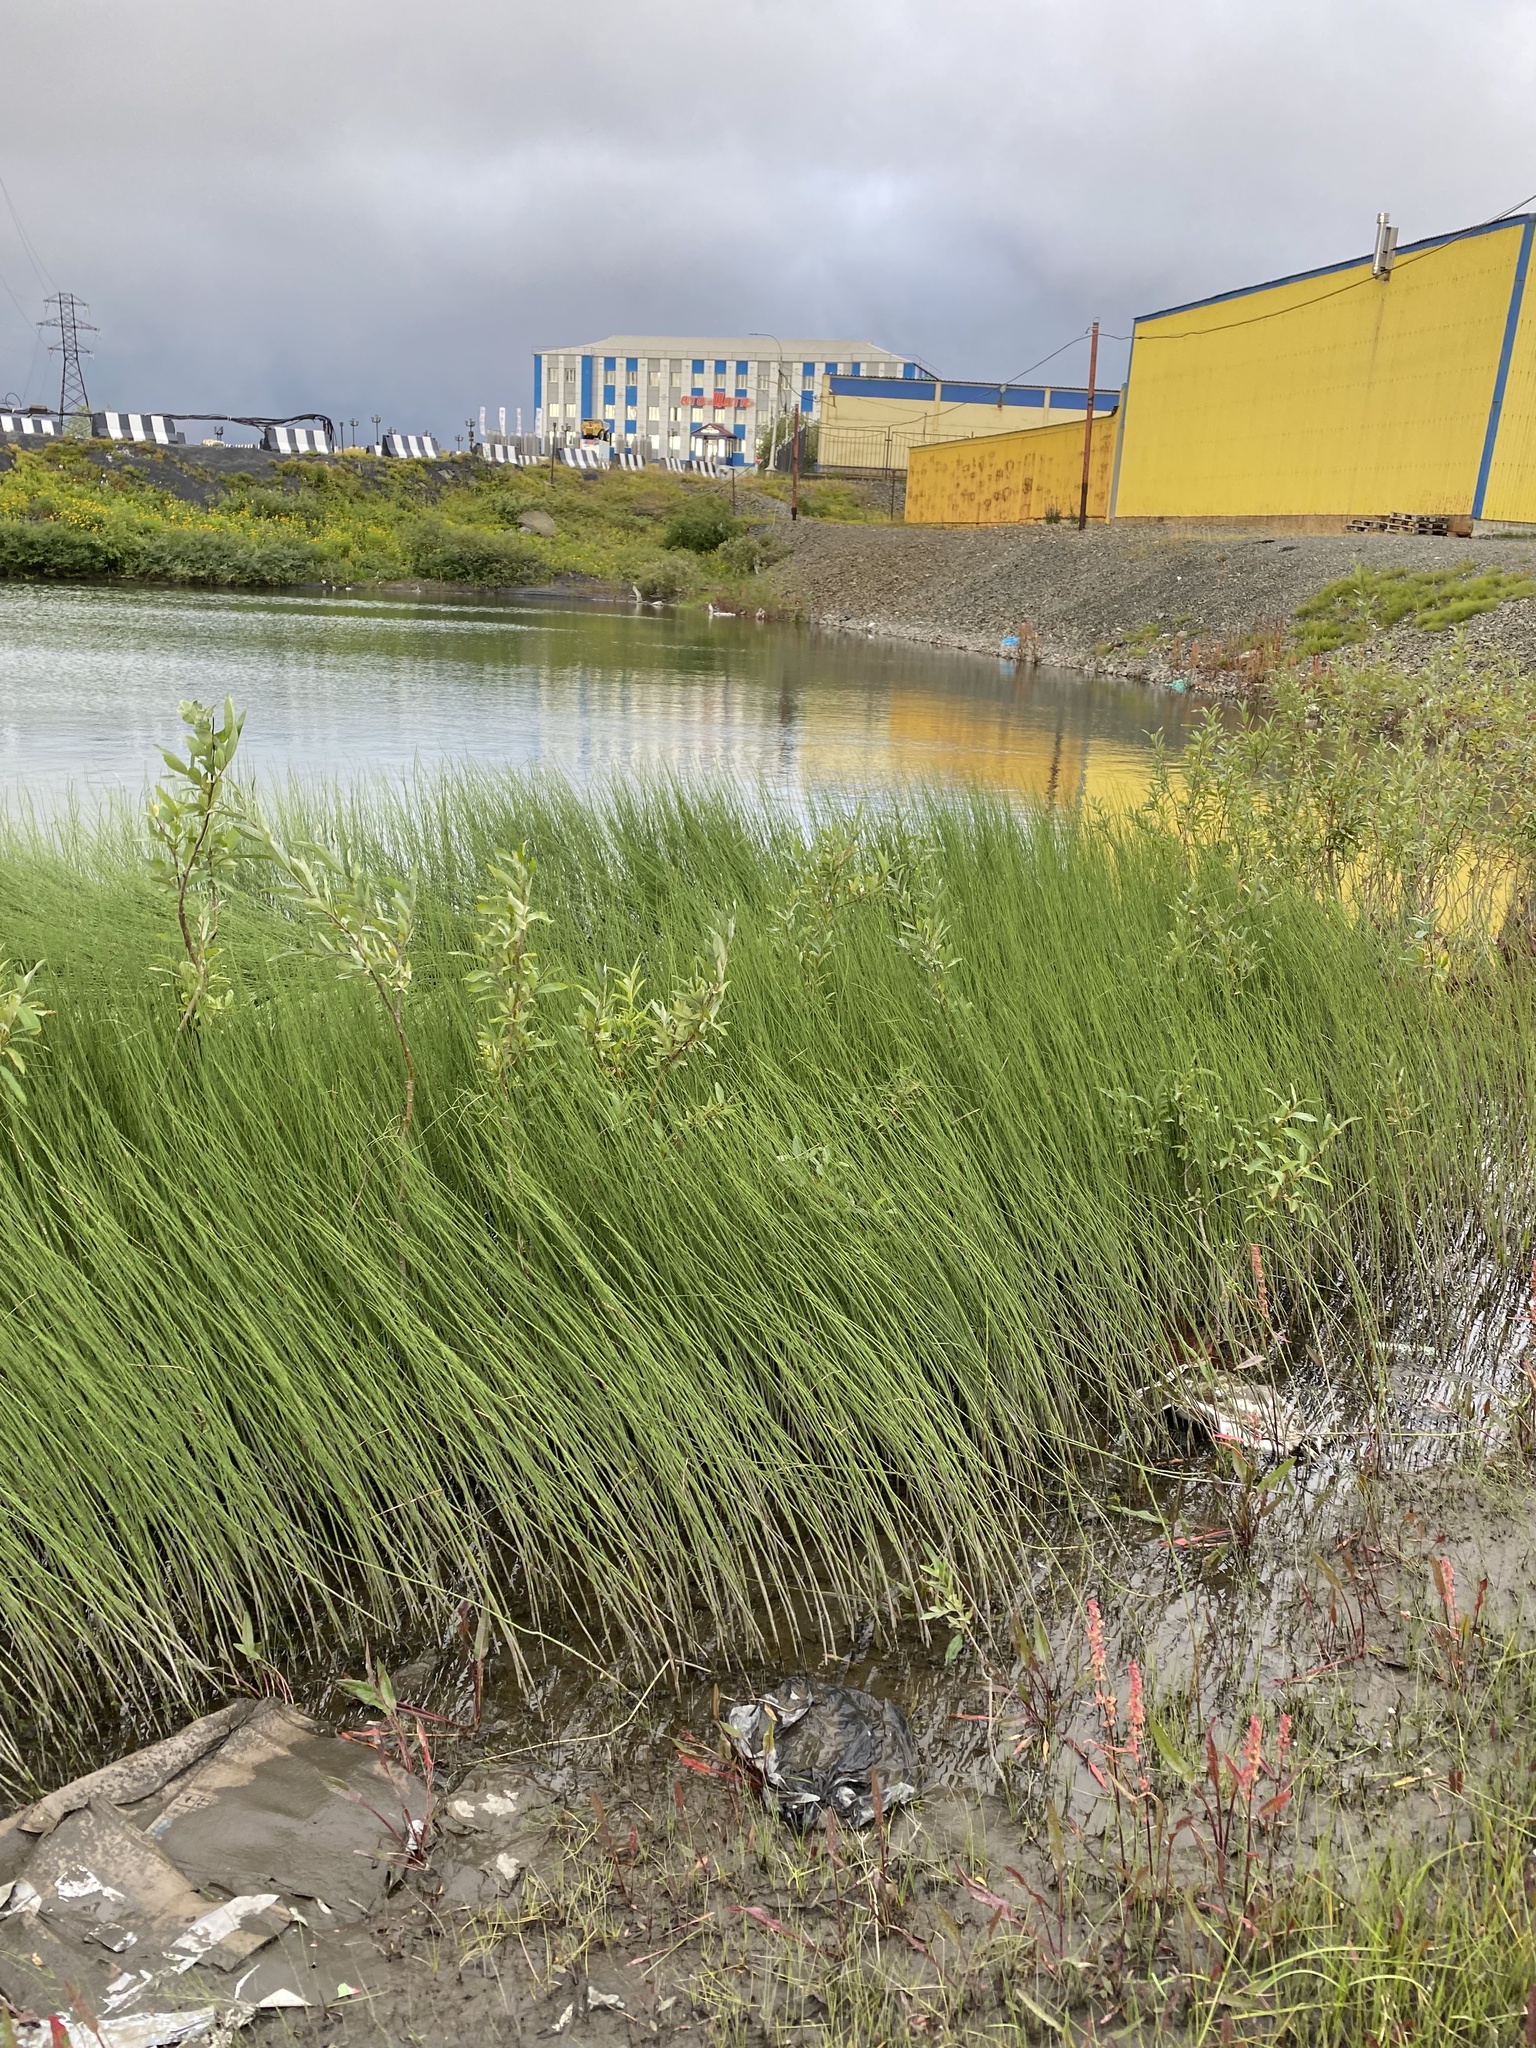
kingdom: Plantae
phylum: Tracheophyta
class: Polypodiopsida
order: Equisetales
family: Equisetaceae
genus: Equisetum
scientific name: Equisetum fluviatile
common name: Water horsetail
